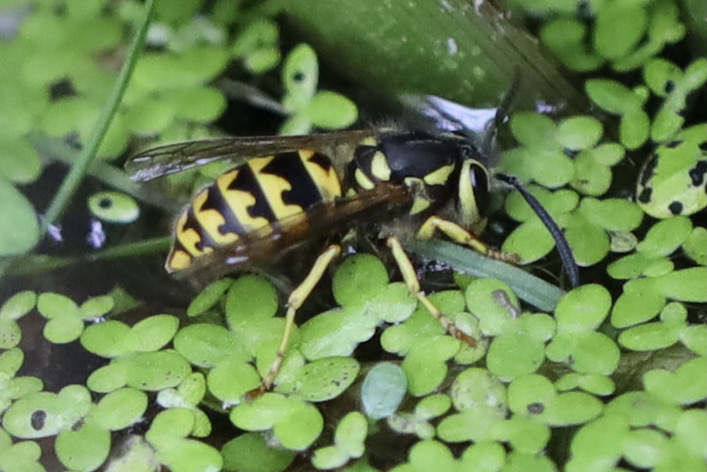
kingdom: Animalia
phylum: Arthropoda
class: Insecta
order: Hymenoptera
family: Vespidae
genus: Vespula
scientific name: Vespula pensylvanica
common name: Western yellowjacket
